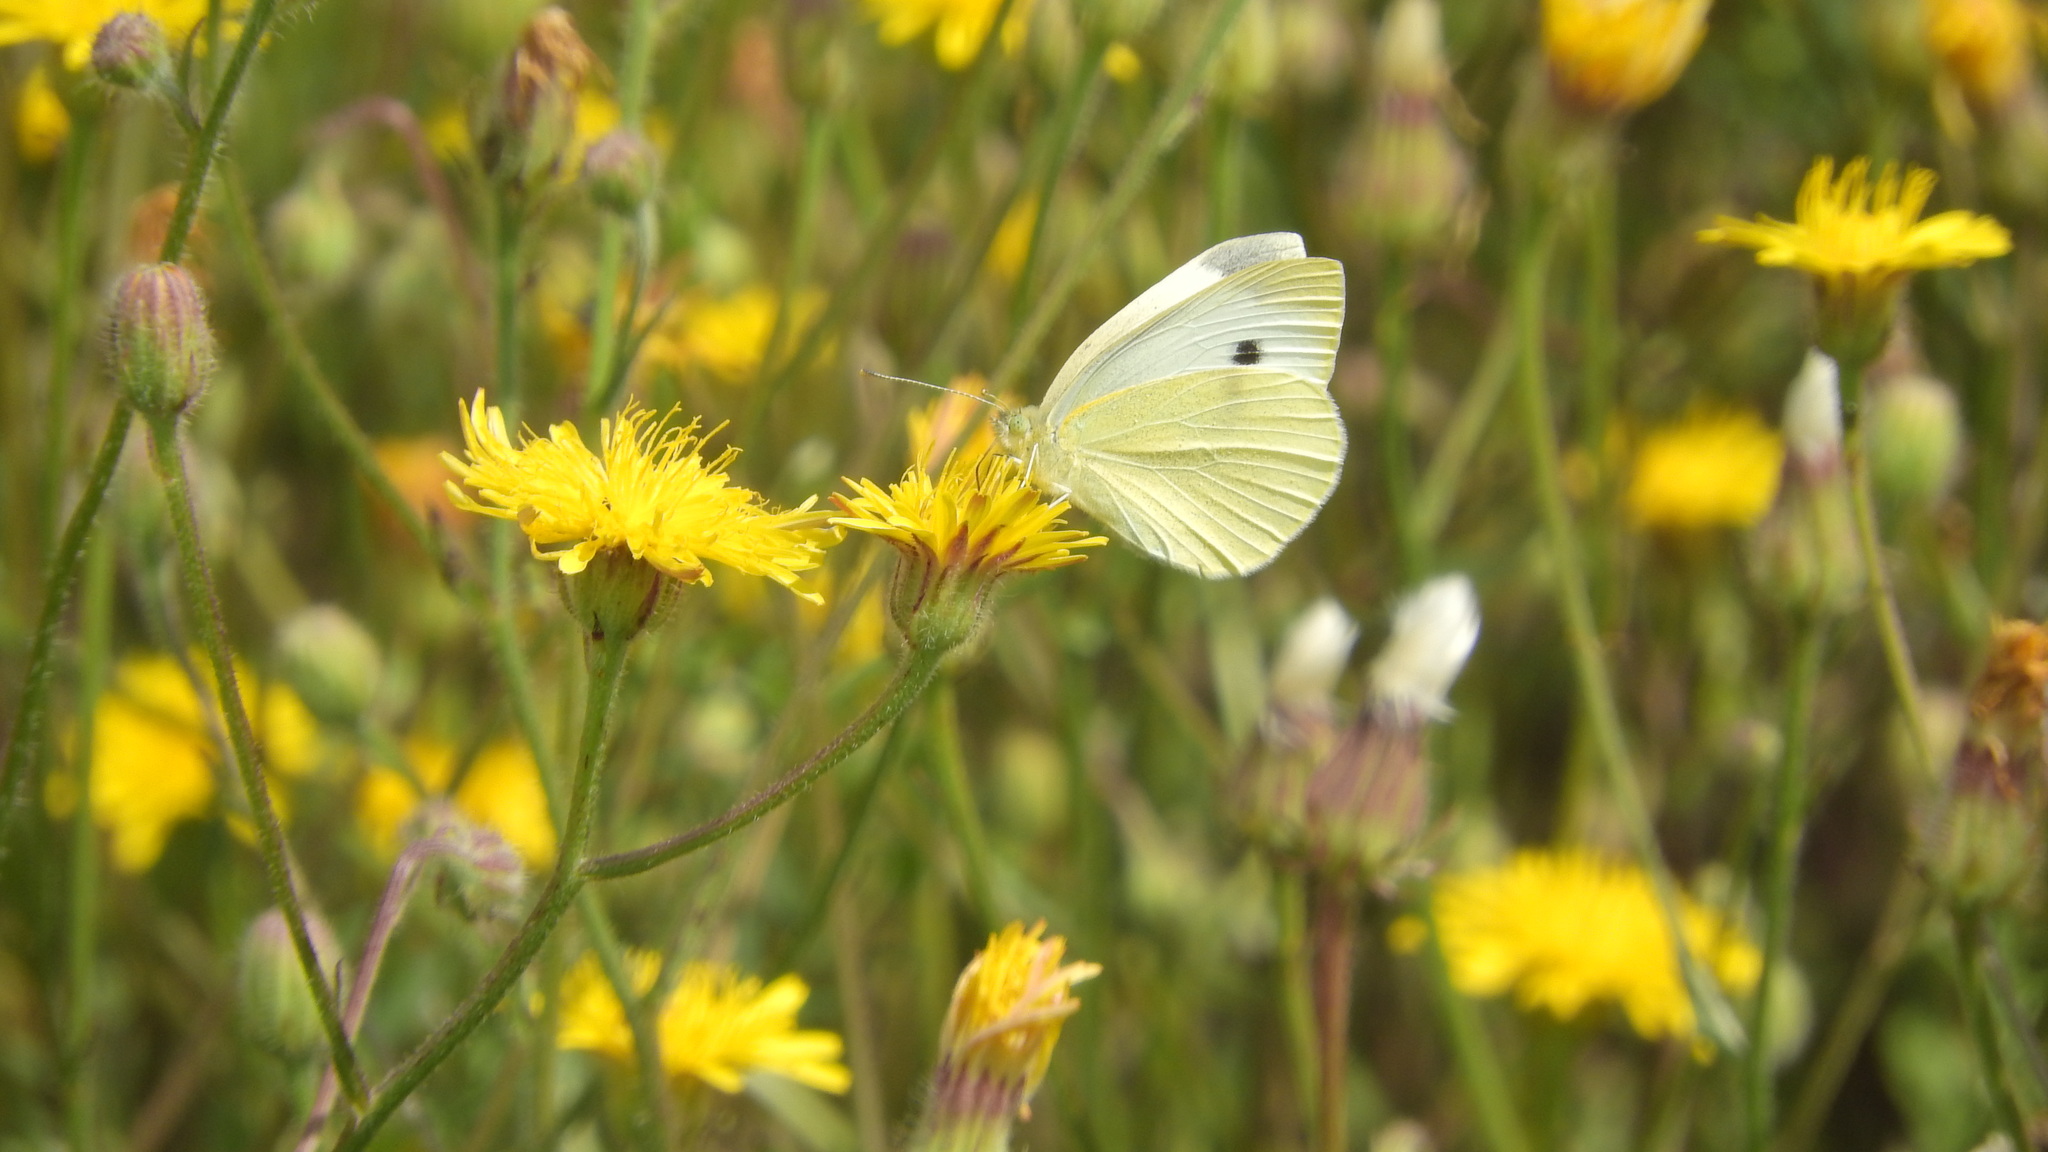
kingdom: Animalia
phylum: Arthropoda
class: Insecta
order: Lepidoptera
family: Pieridae
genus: Pieris
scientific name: Pieris rapae
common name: Small white
